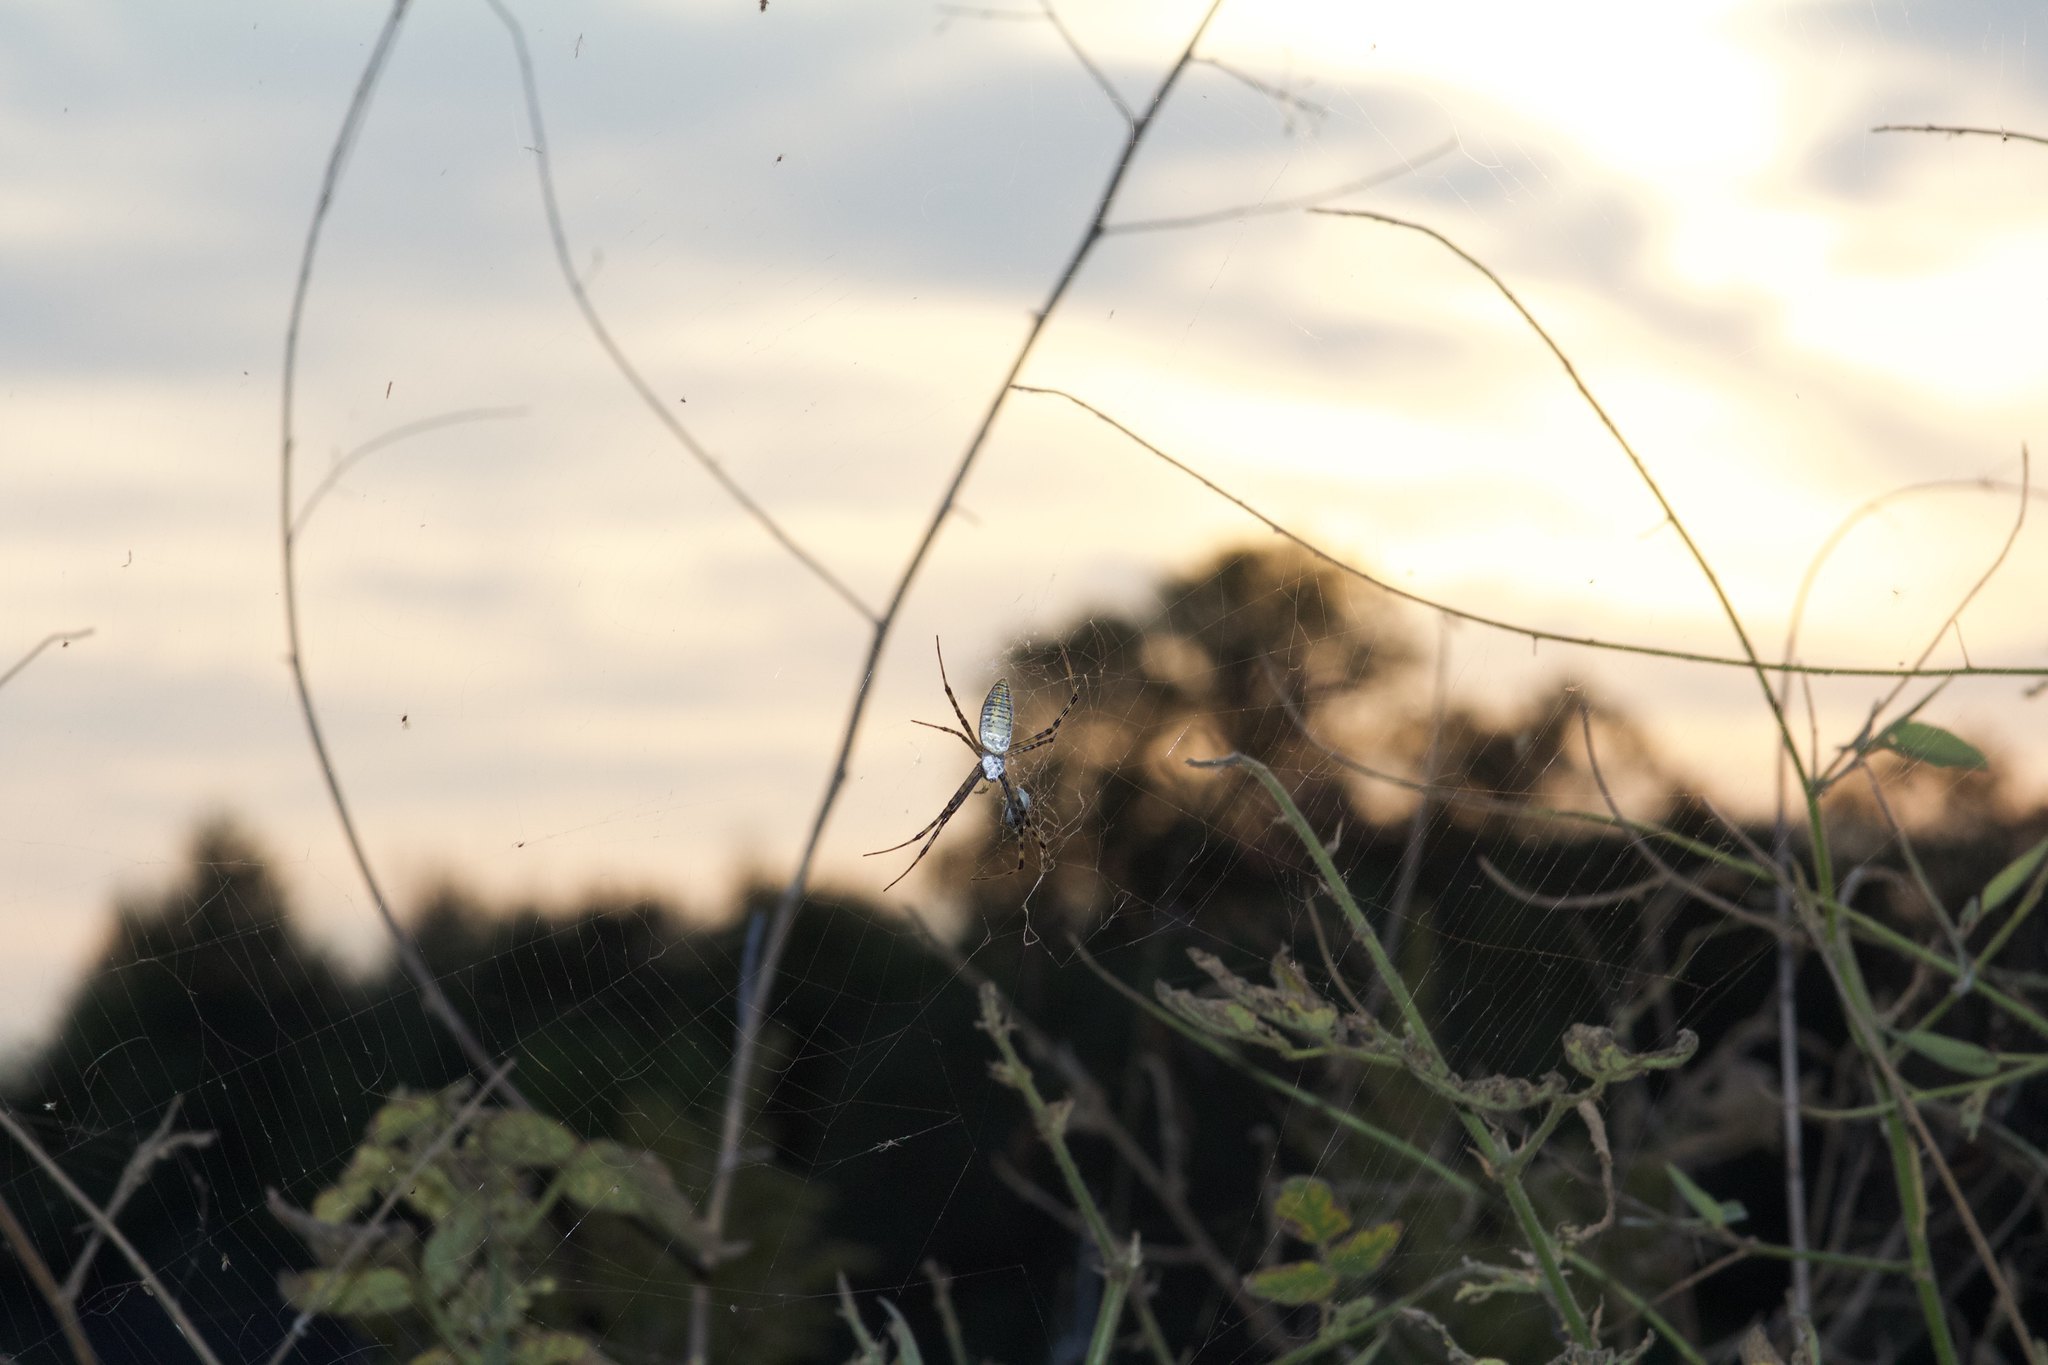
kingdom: Animalia
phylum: Arthropoda
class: Arachnida
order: Araneae
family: Araneidae
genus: Argiope
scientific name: Argiope trifasciata
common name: Banded garden spider
